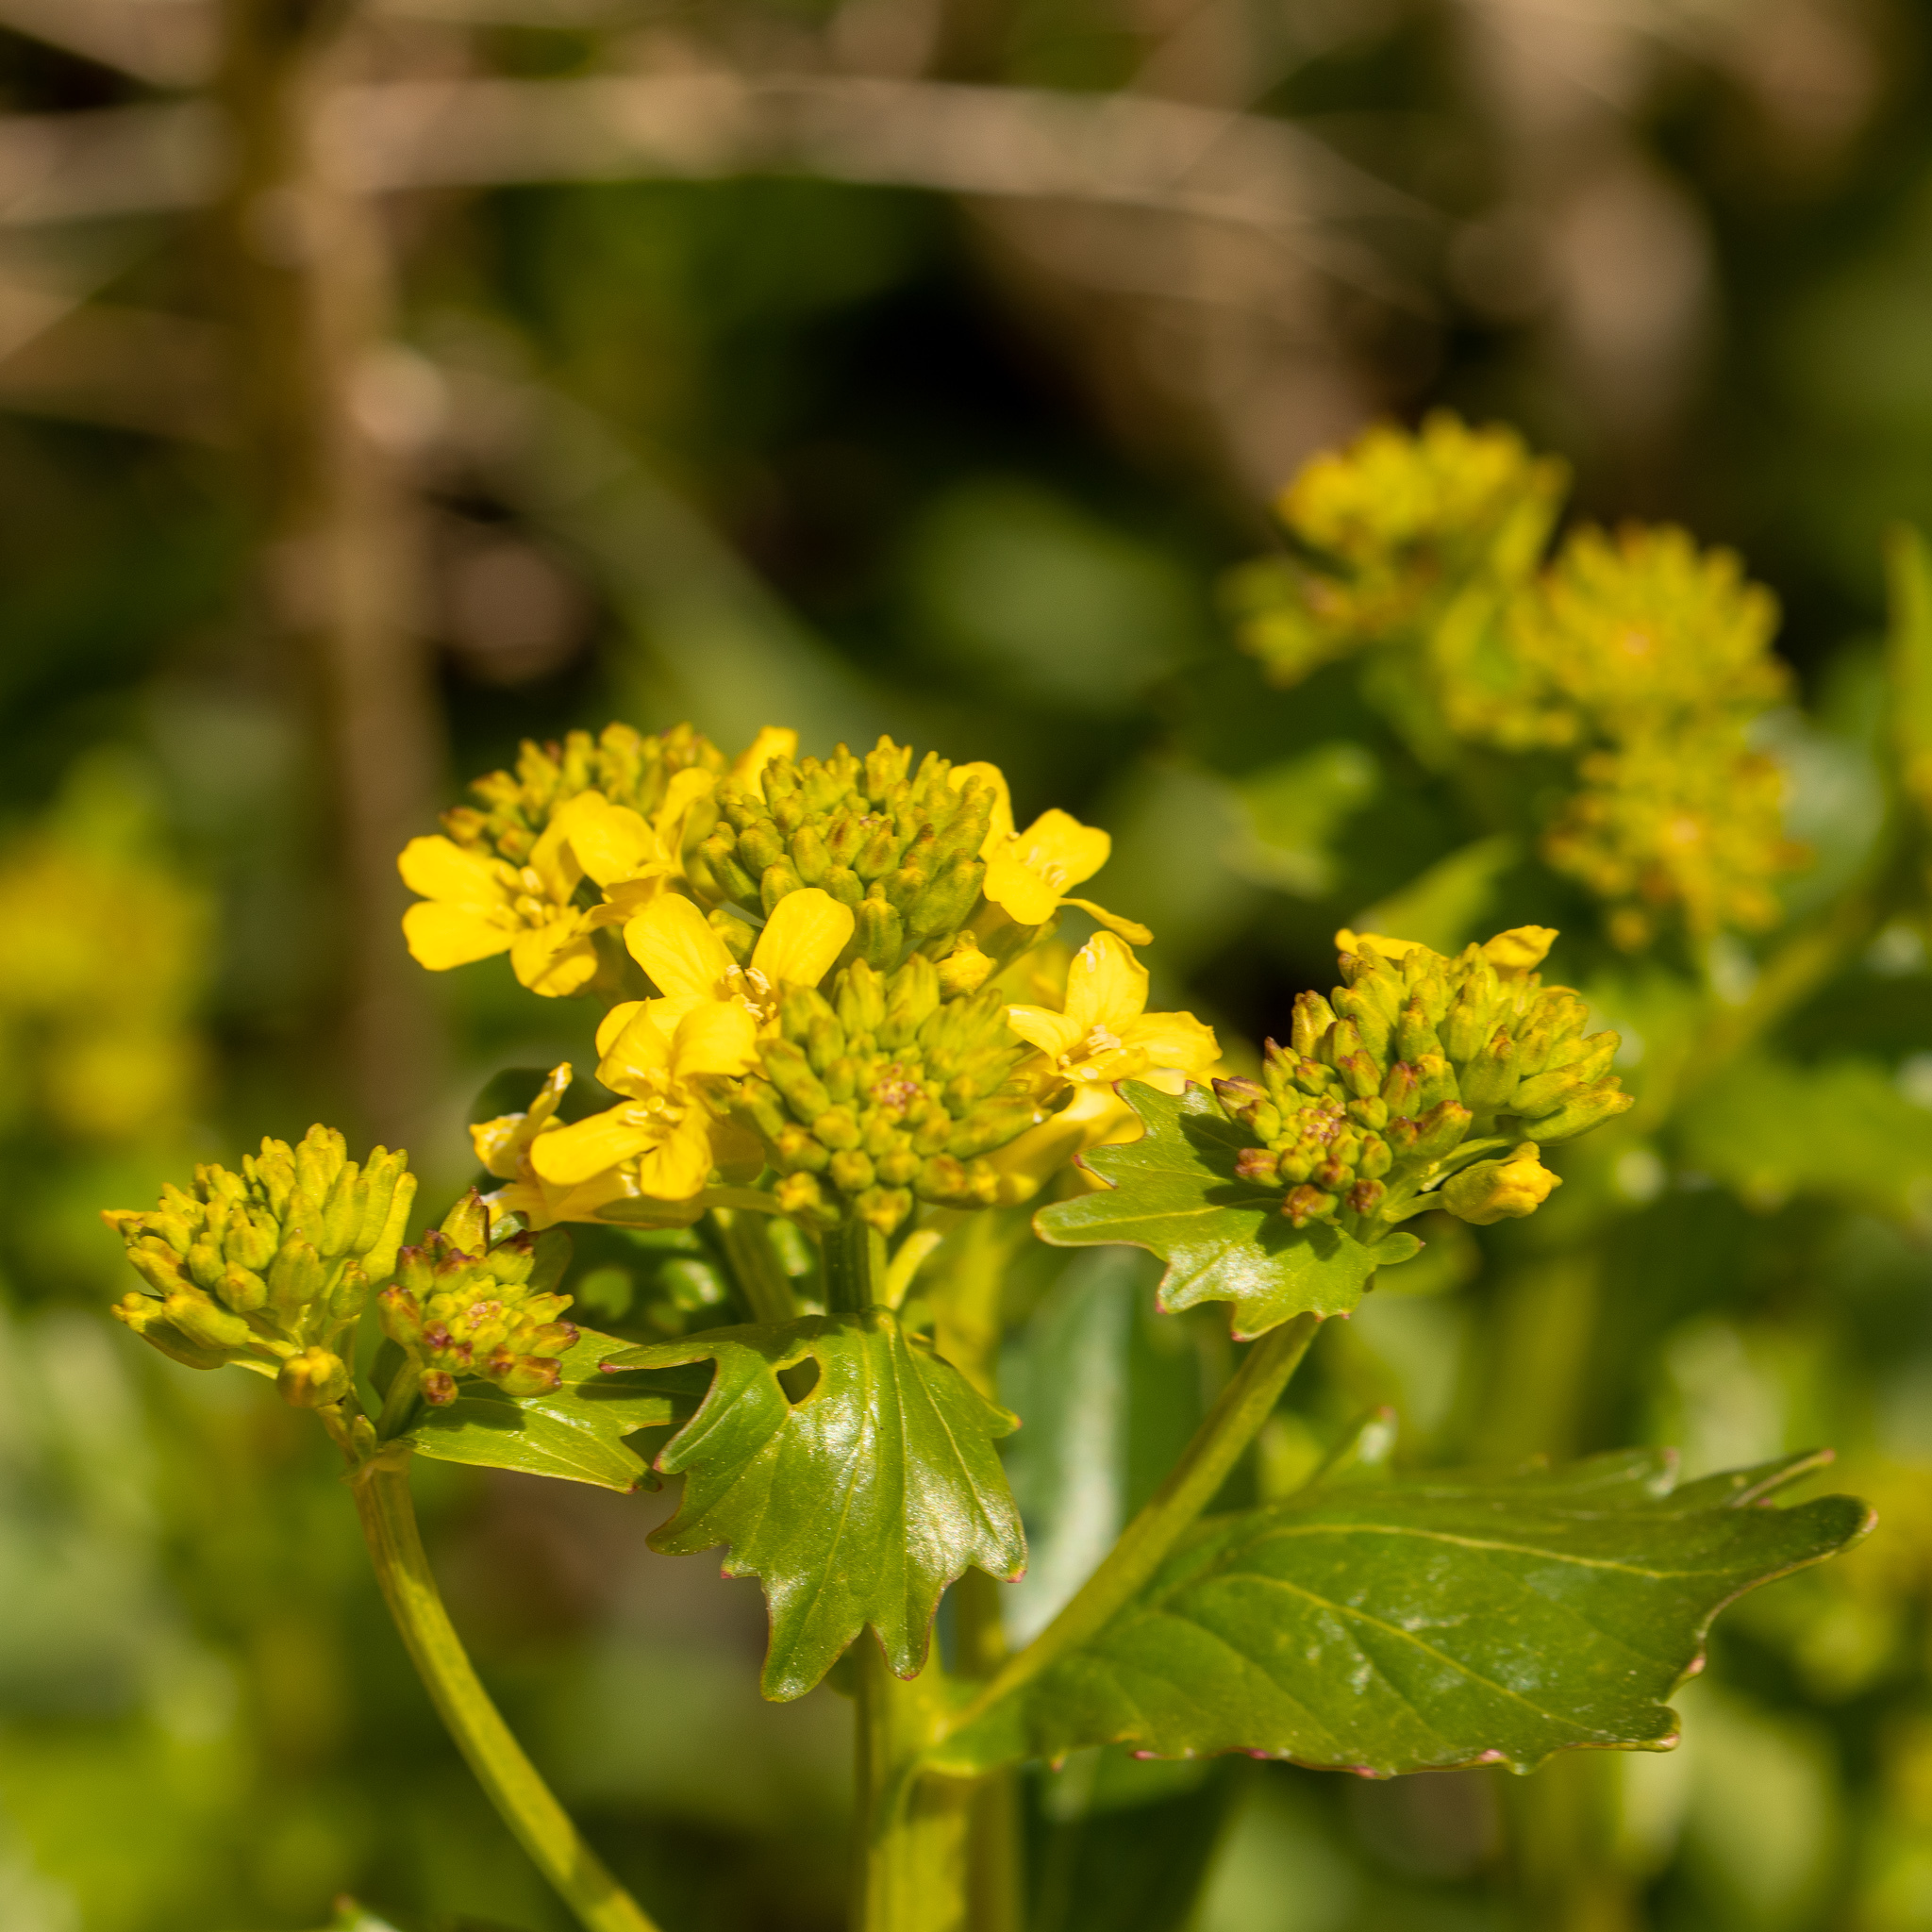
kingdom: Plantae
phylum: Tracheophyta
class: Magnoliopsida
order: Brassicales
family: Brassicaceae
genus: Barbarea
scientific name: Barbarea vulgaris
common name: Cressy-greens
